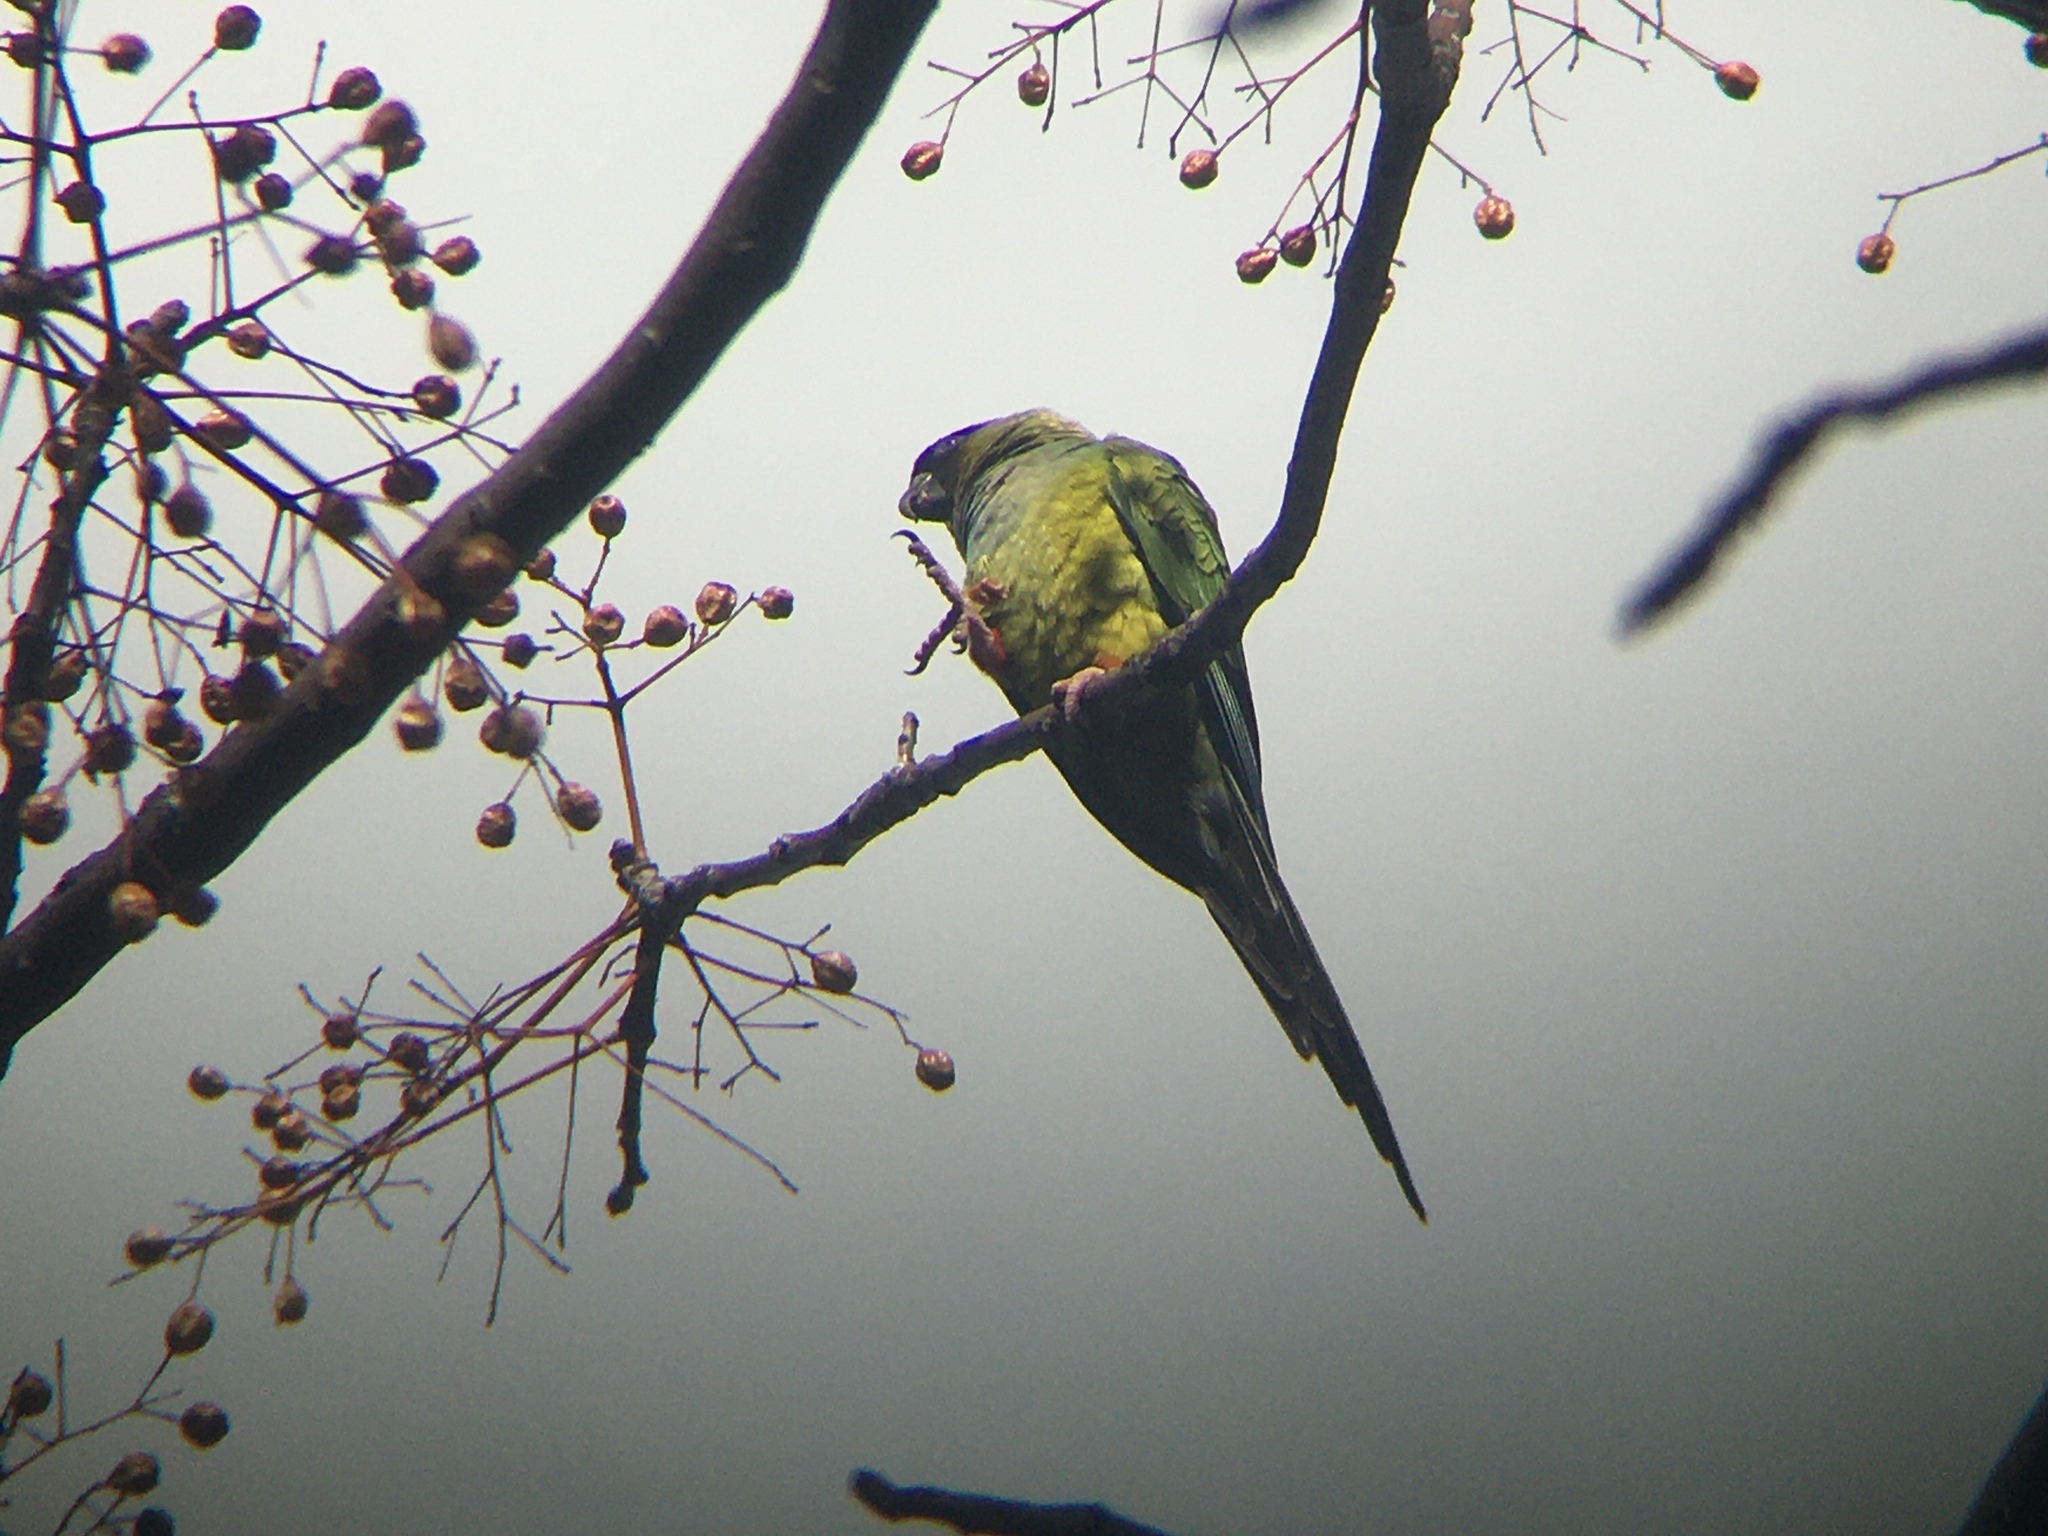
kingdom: Animalia
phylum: Chordata
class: Aves
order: Psittaciformes
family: Psittacidae
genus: Nandayus
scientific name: Nandayus nenday
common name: Nanday parakeet
